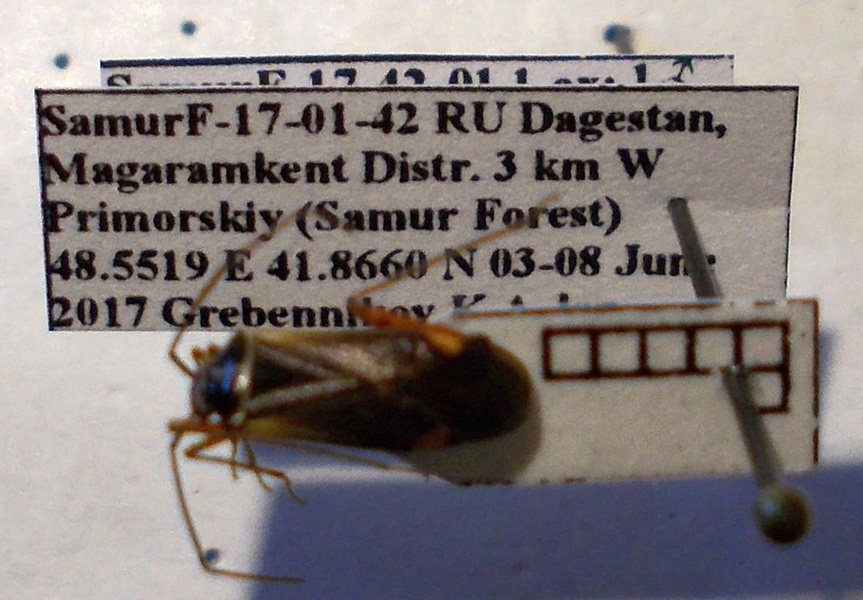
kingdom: Animalia
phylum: Arthropoda
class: Insecta
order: Hemiptera
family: Miridae
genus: Adelphocoris
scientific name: Adelphocoris seticornis
